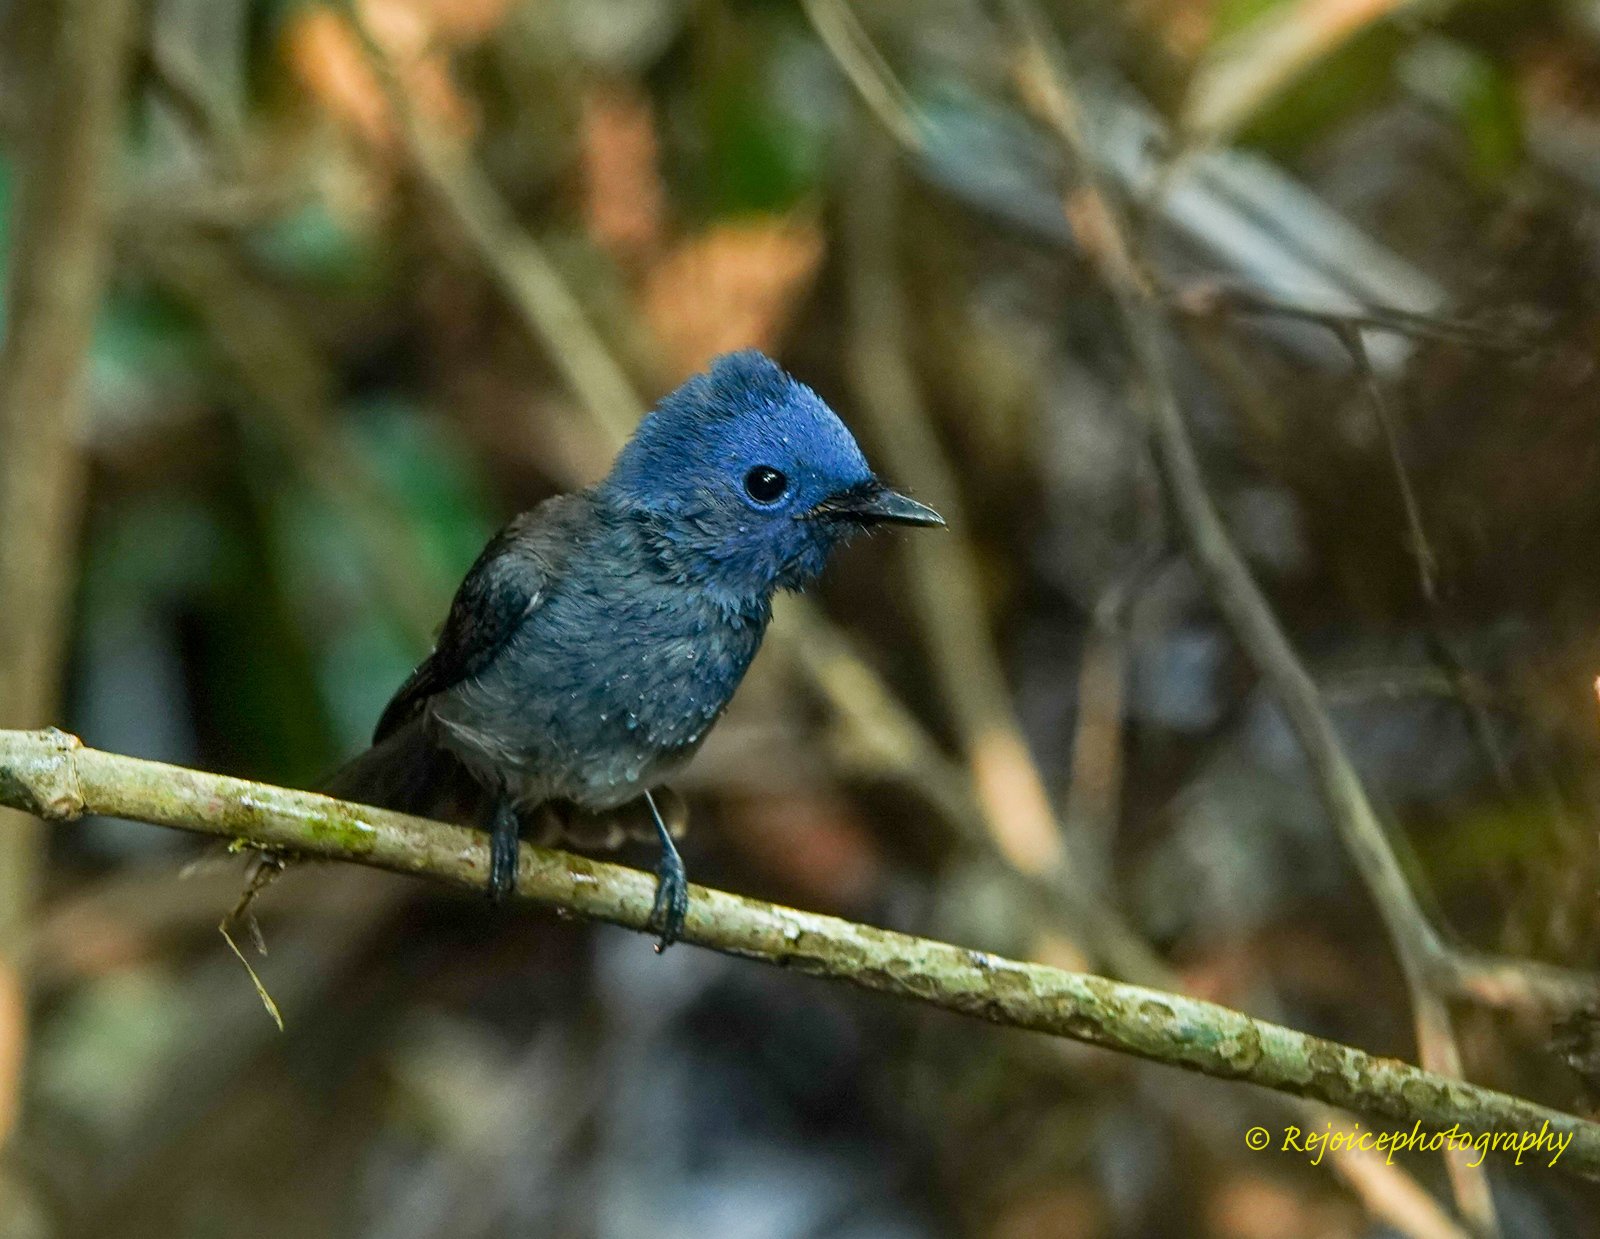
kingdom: Animalia
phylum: Chordata
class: Aves
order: Passeriformes
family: Monarchidae
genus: Hypothymis
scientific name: Hypothymis azurea
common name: Black-naped monarch
